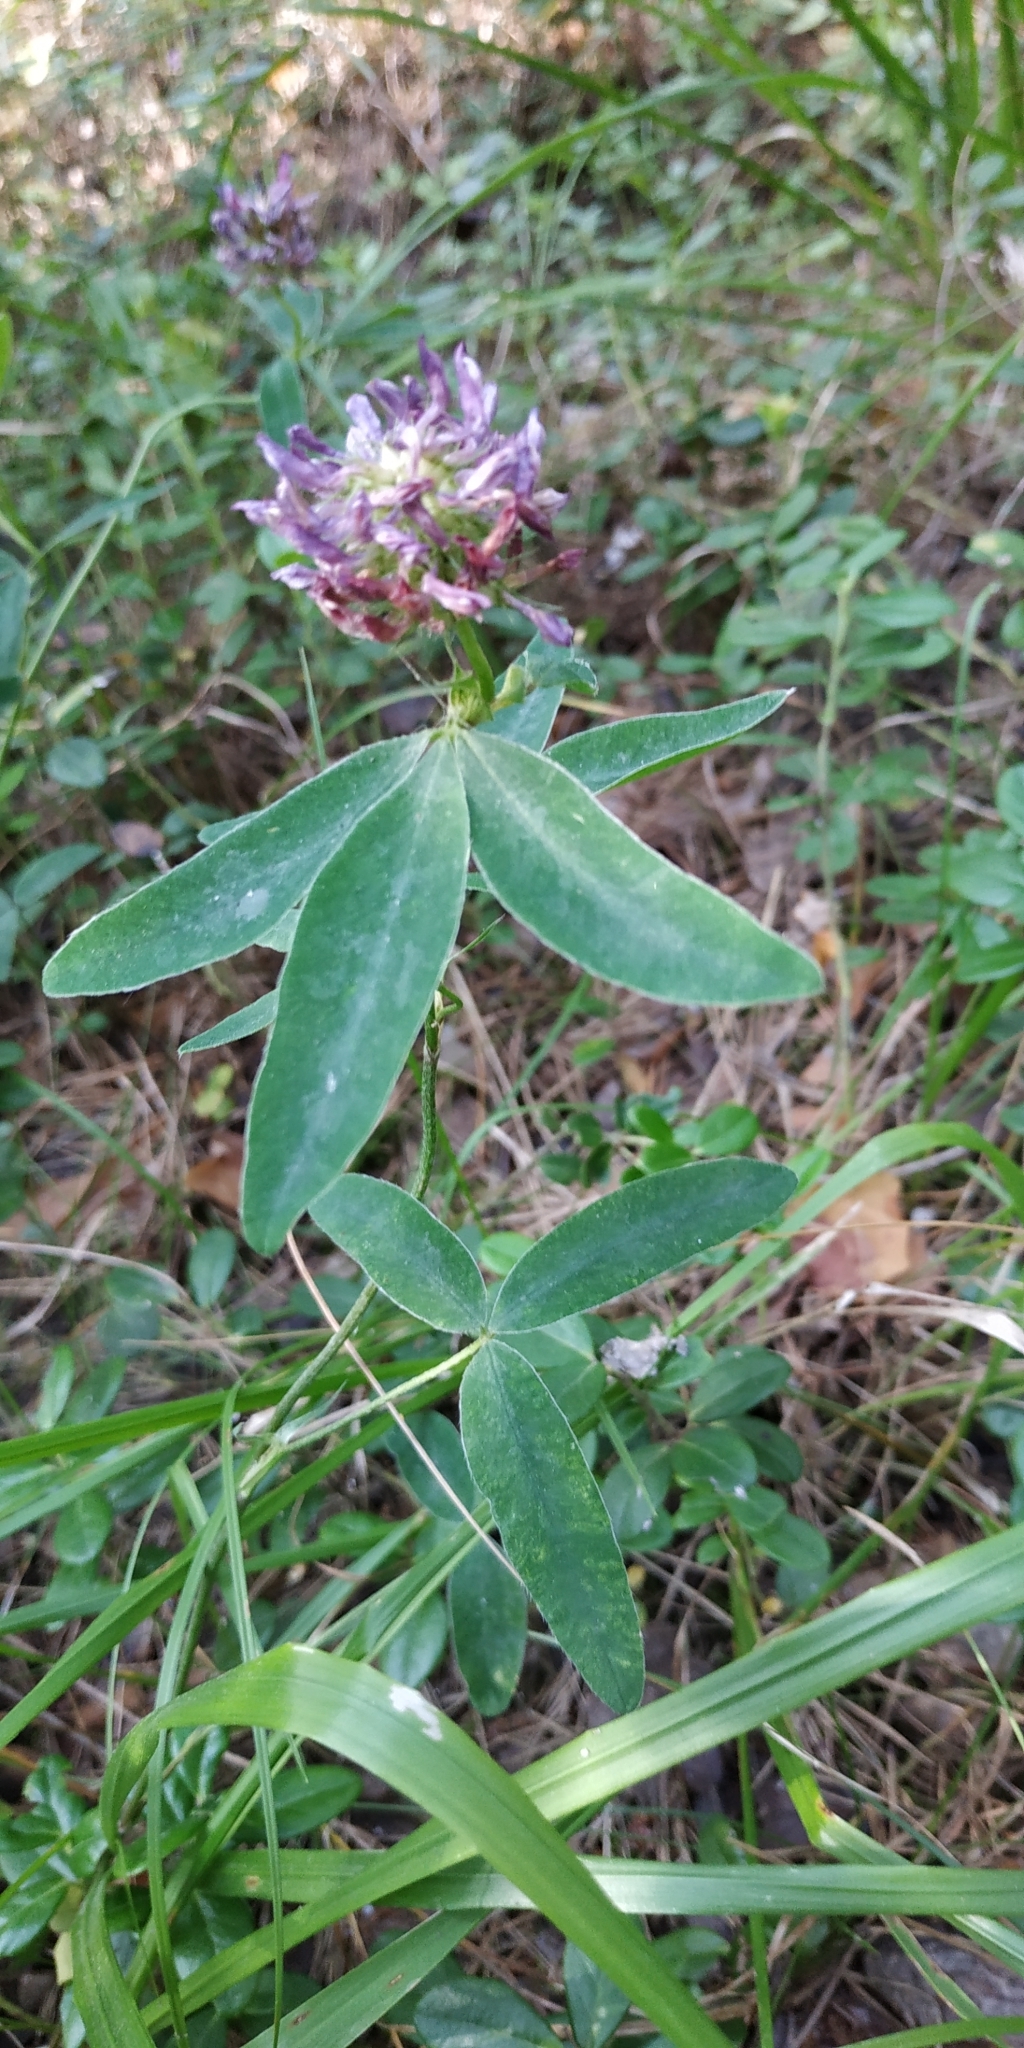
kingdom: Plantae
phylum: Tracheophyta
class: Magnoliopsida
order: Fabales
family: Fabaceae
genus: Trifolium
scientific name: Trifolium medium
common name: Zigzag clover
